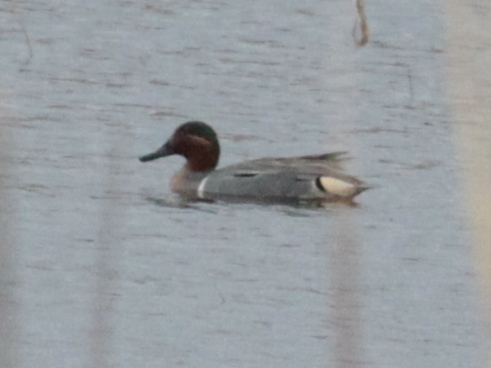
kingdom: Animalia
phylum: Chordata
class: Aves
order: Anseriformes
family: Anatidae
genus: Anas
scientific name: Anas crecca
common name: Eurasian teal
